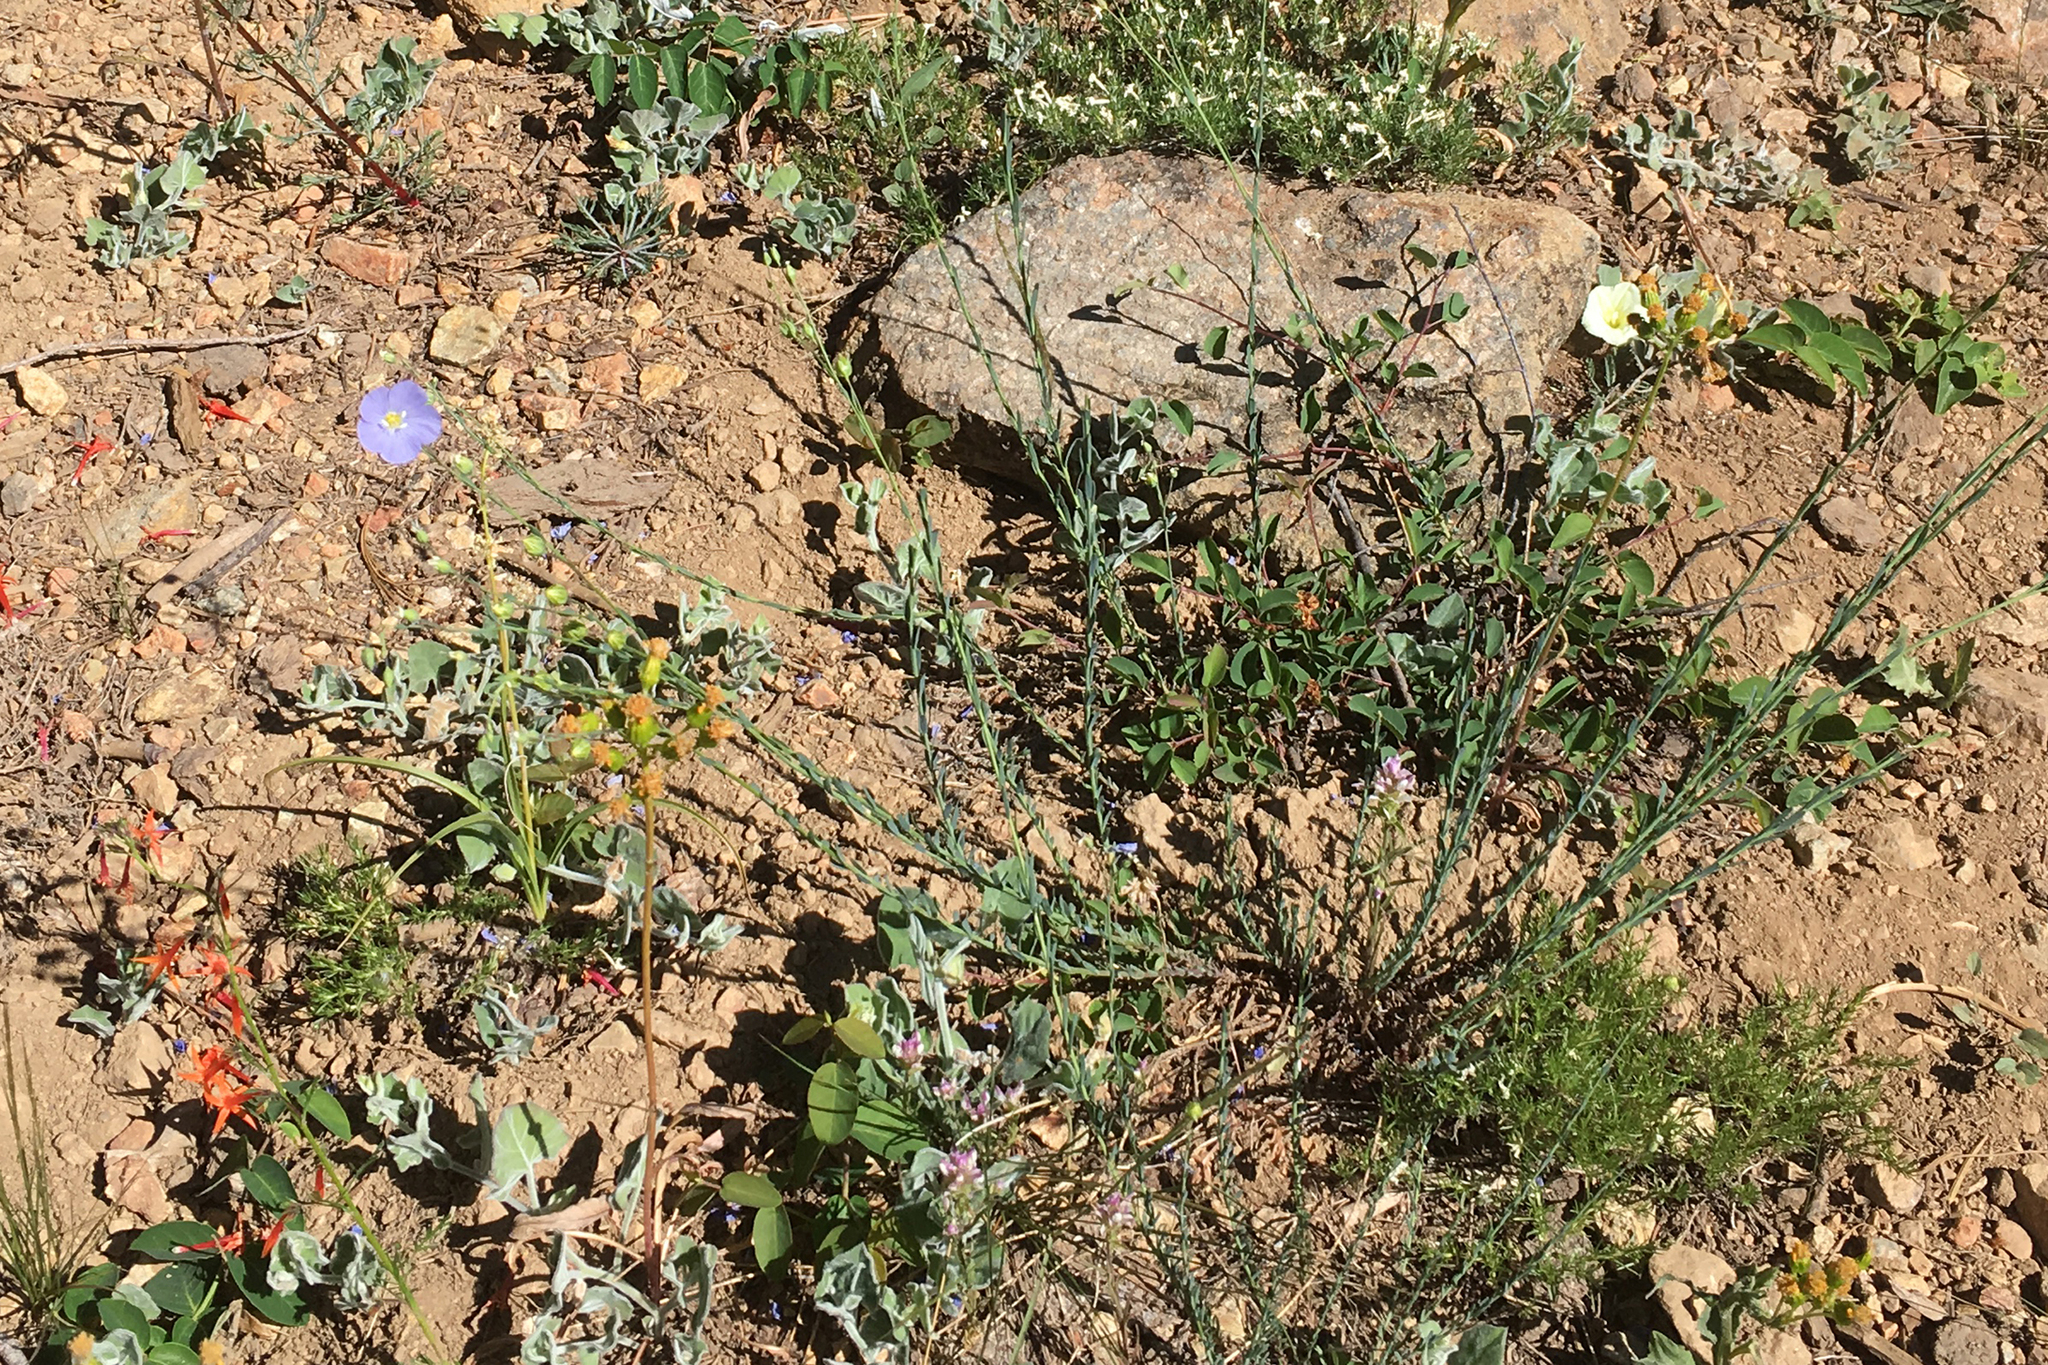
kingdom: Plantae
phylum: Tracheophyta
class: Magnoliopsida
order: Malpighiales
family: Linaceae
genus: Linum
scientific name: Linum lewisii
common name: Prairie flax
